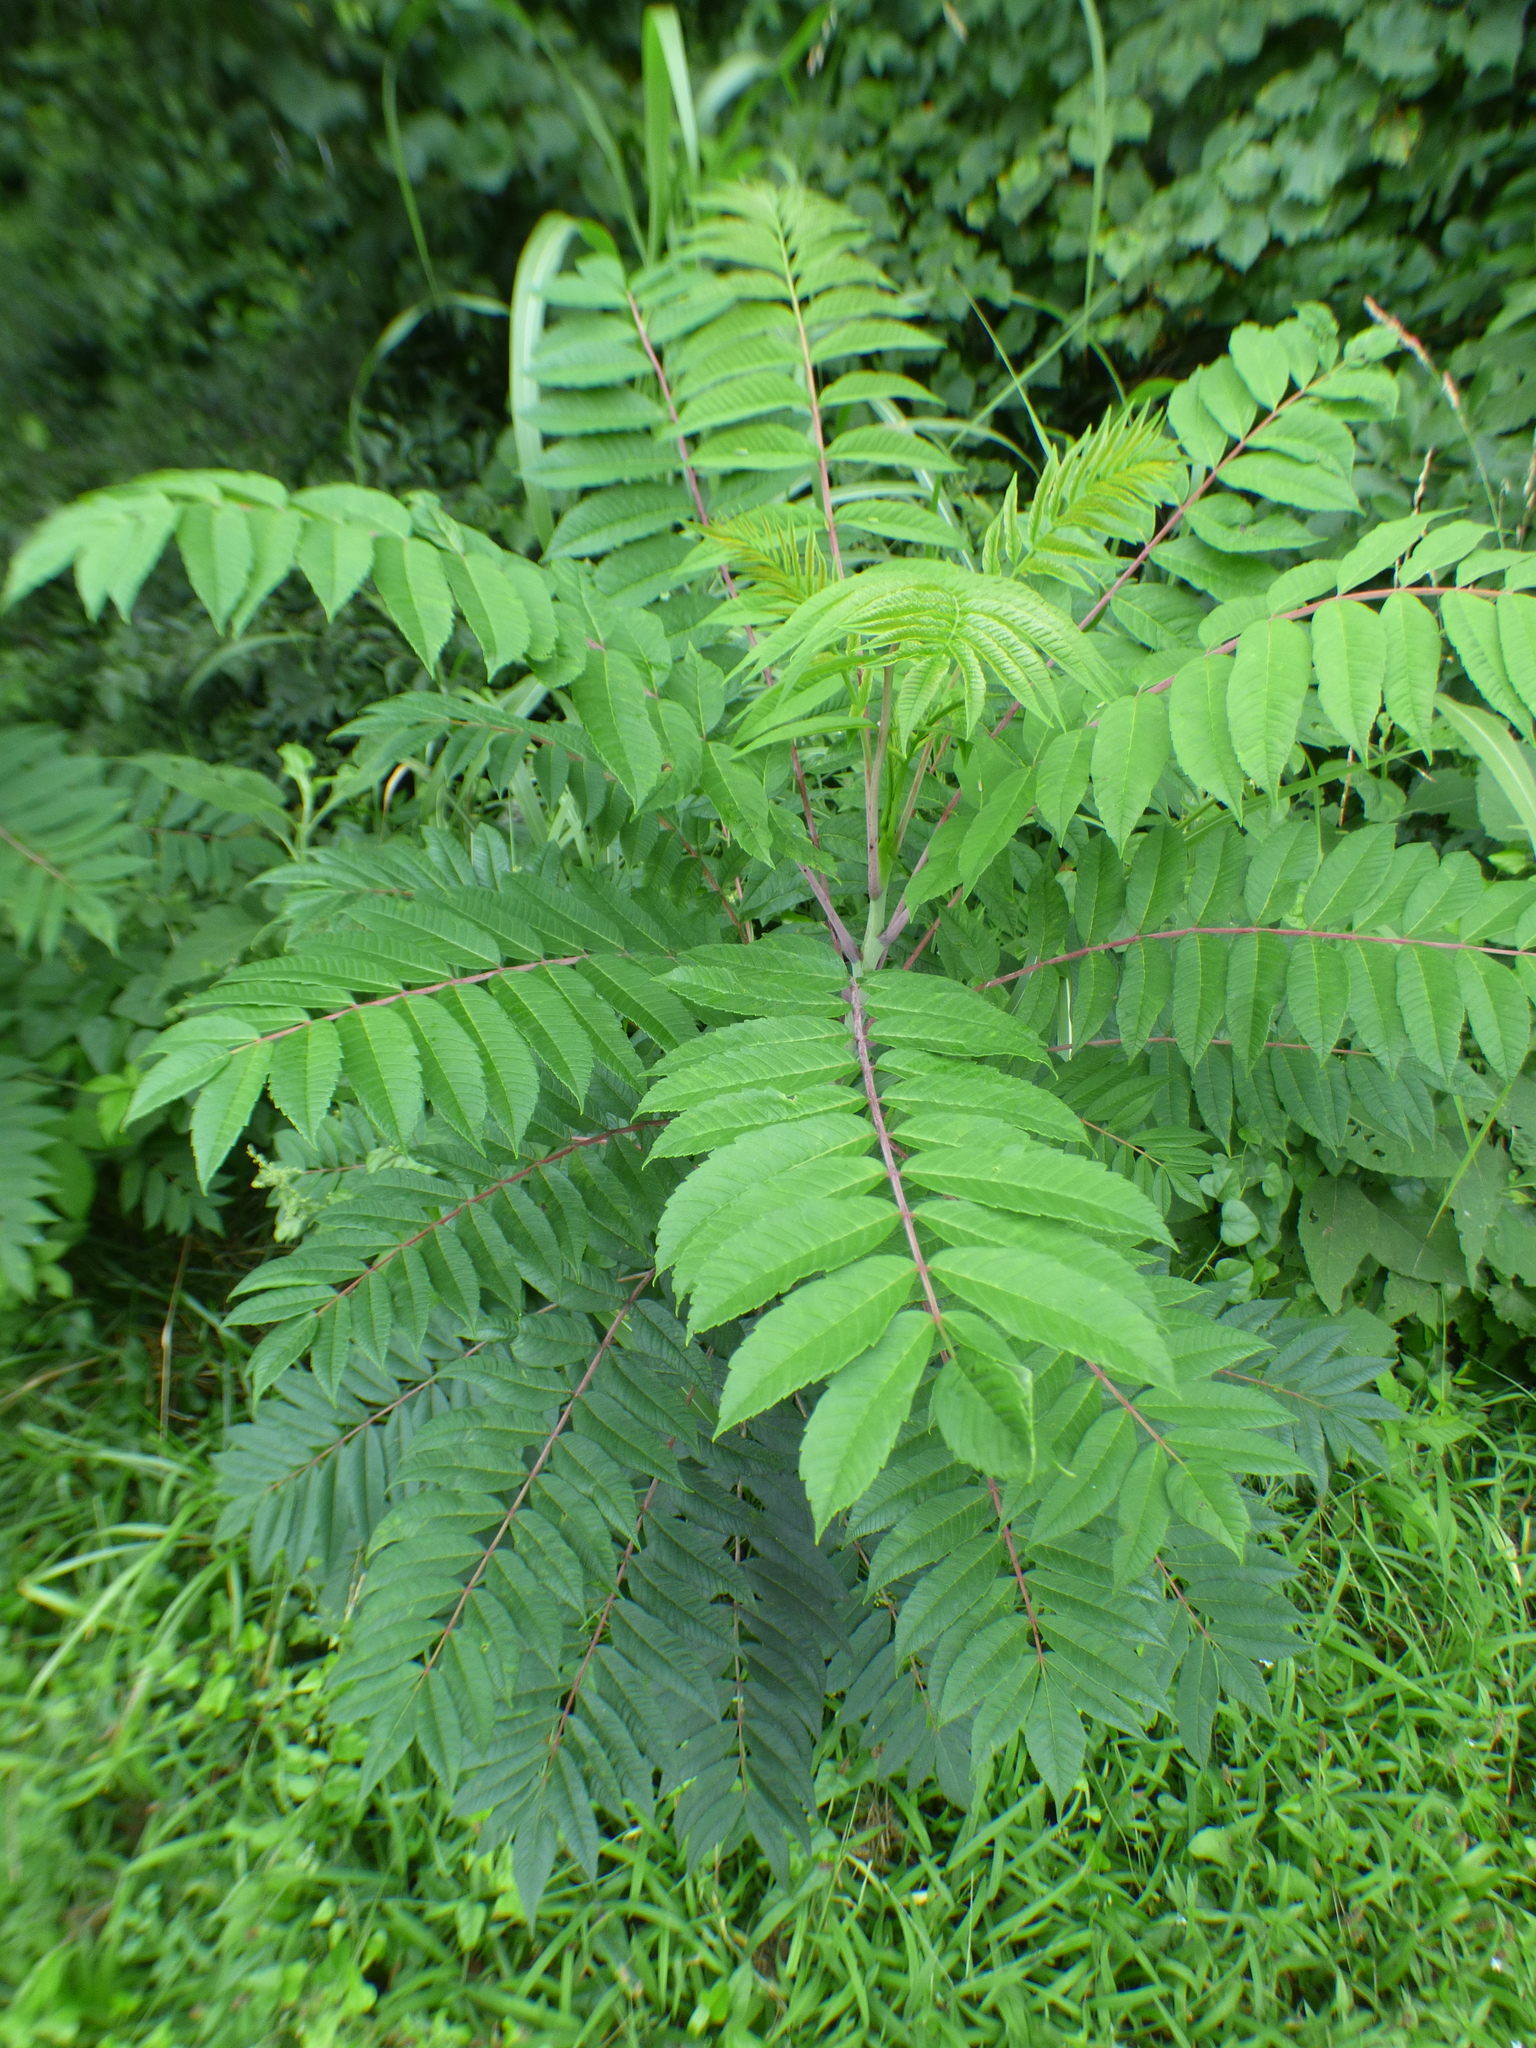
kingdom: Plantae
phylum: Tracheophyta
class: Magnoliopsida
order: Sapindales
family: Anacardiaceae
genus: Rhus
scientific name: Rhus glabra
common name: Scarlet sumac
